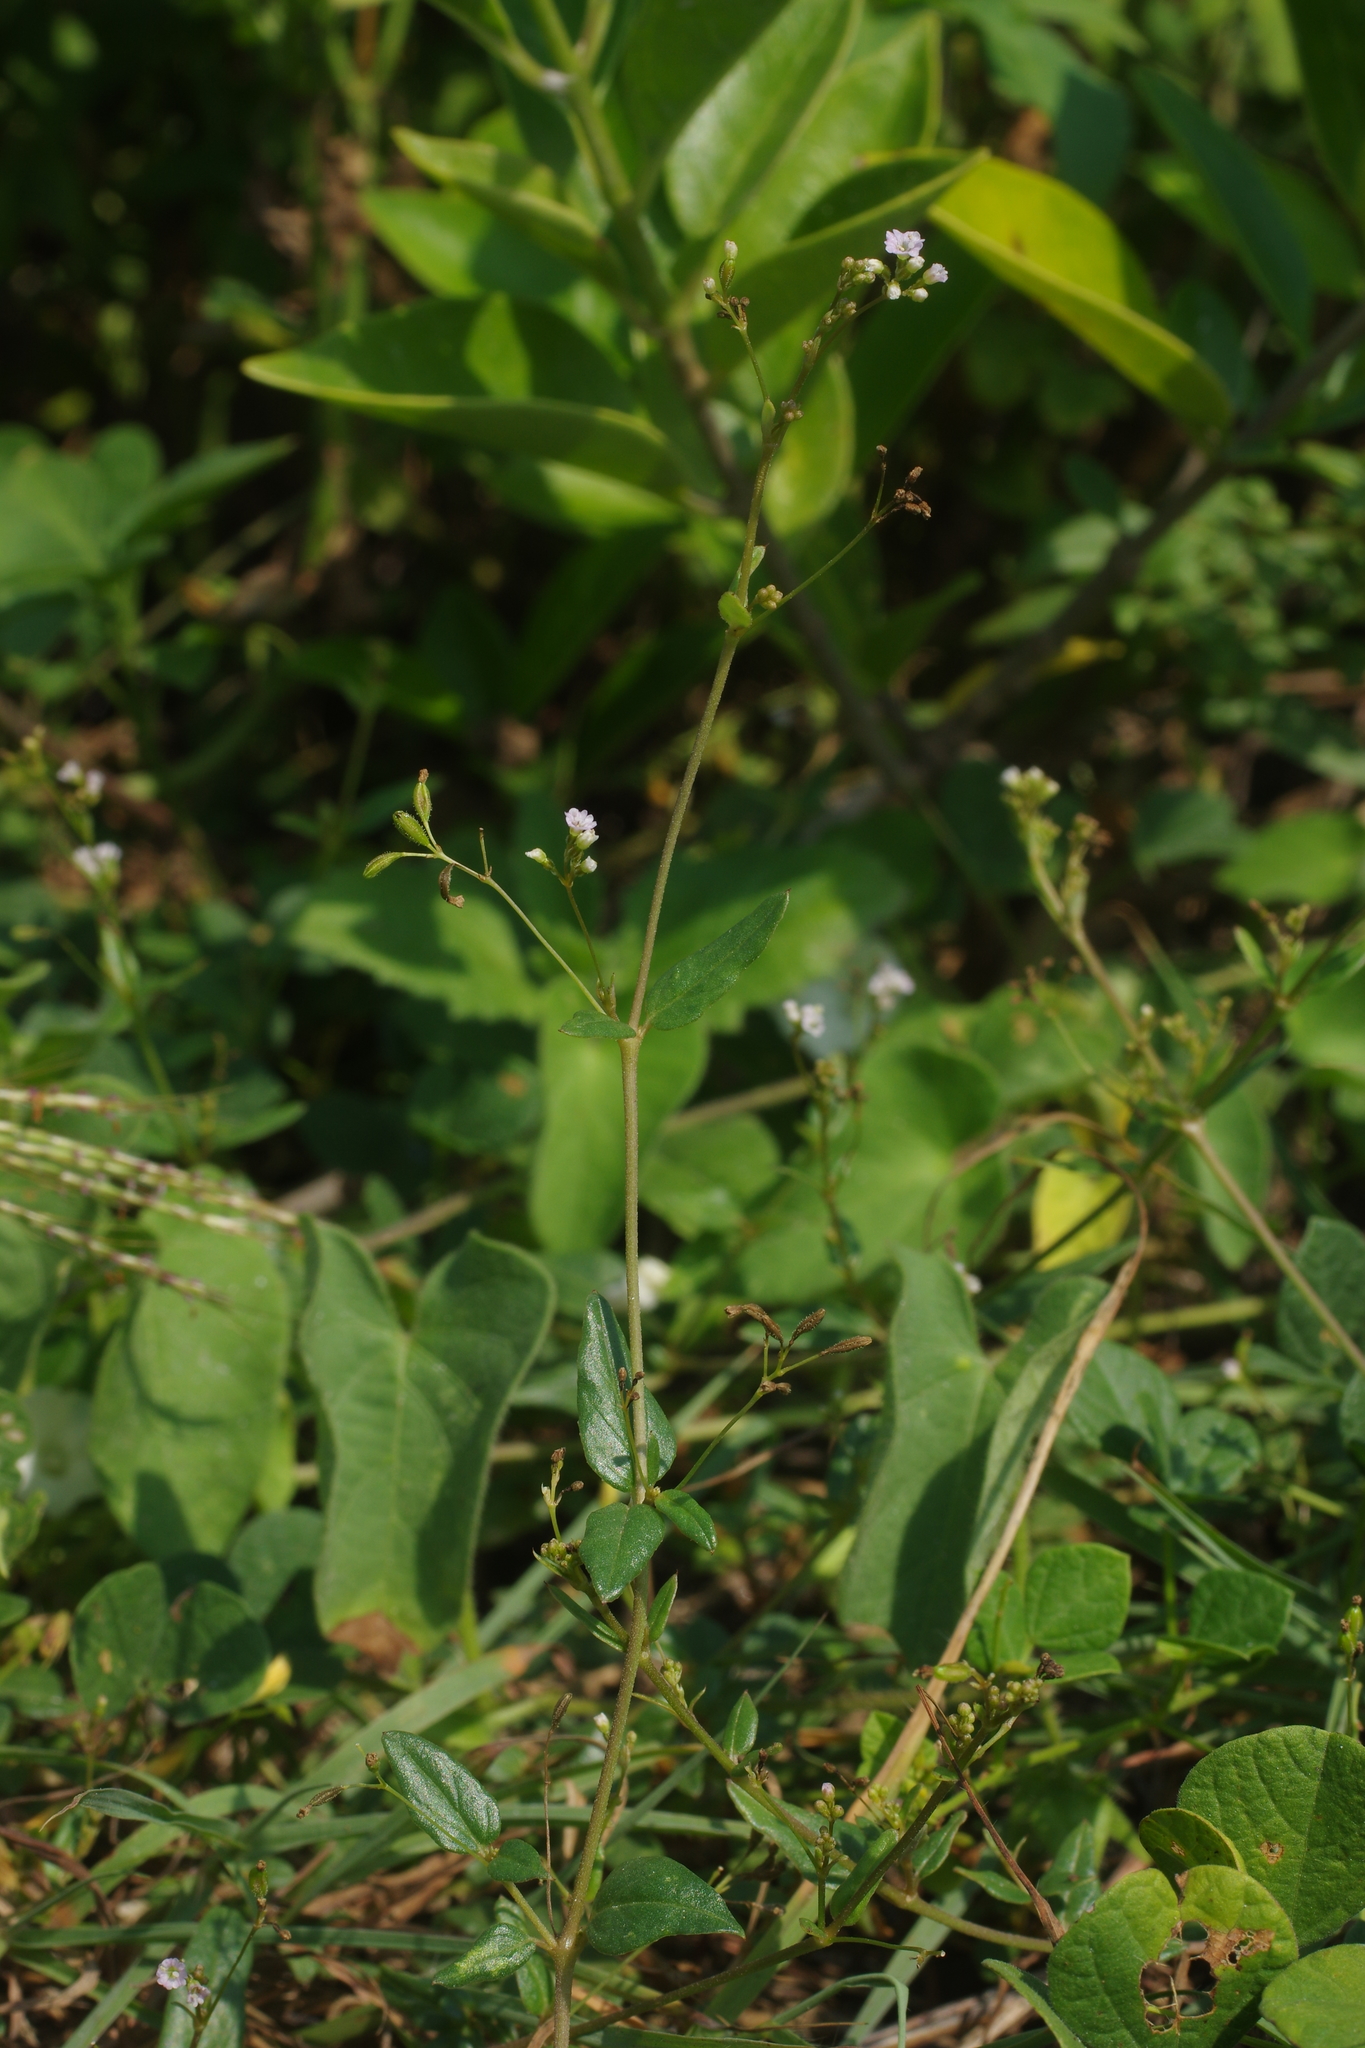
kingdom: Plantae
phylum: Tracheophyta
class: Magnoliopsida
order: Caryophyllales
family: Nyctaginaceae
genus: Boerhavia
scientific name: Boerhavia glabrata
